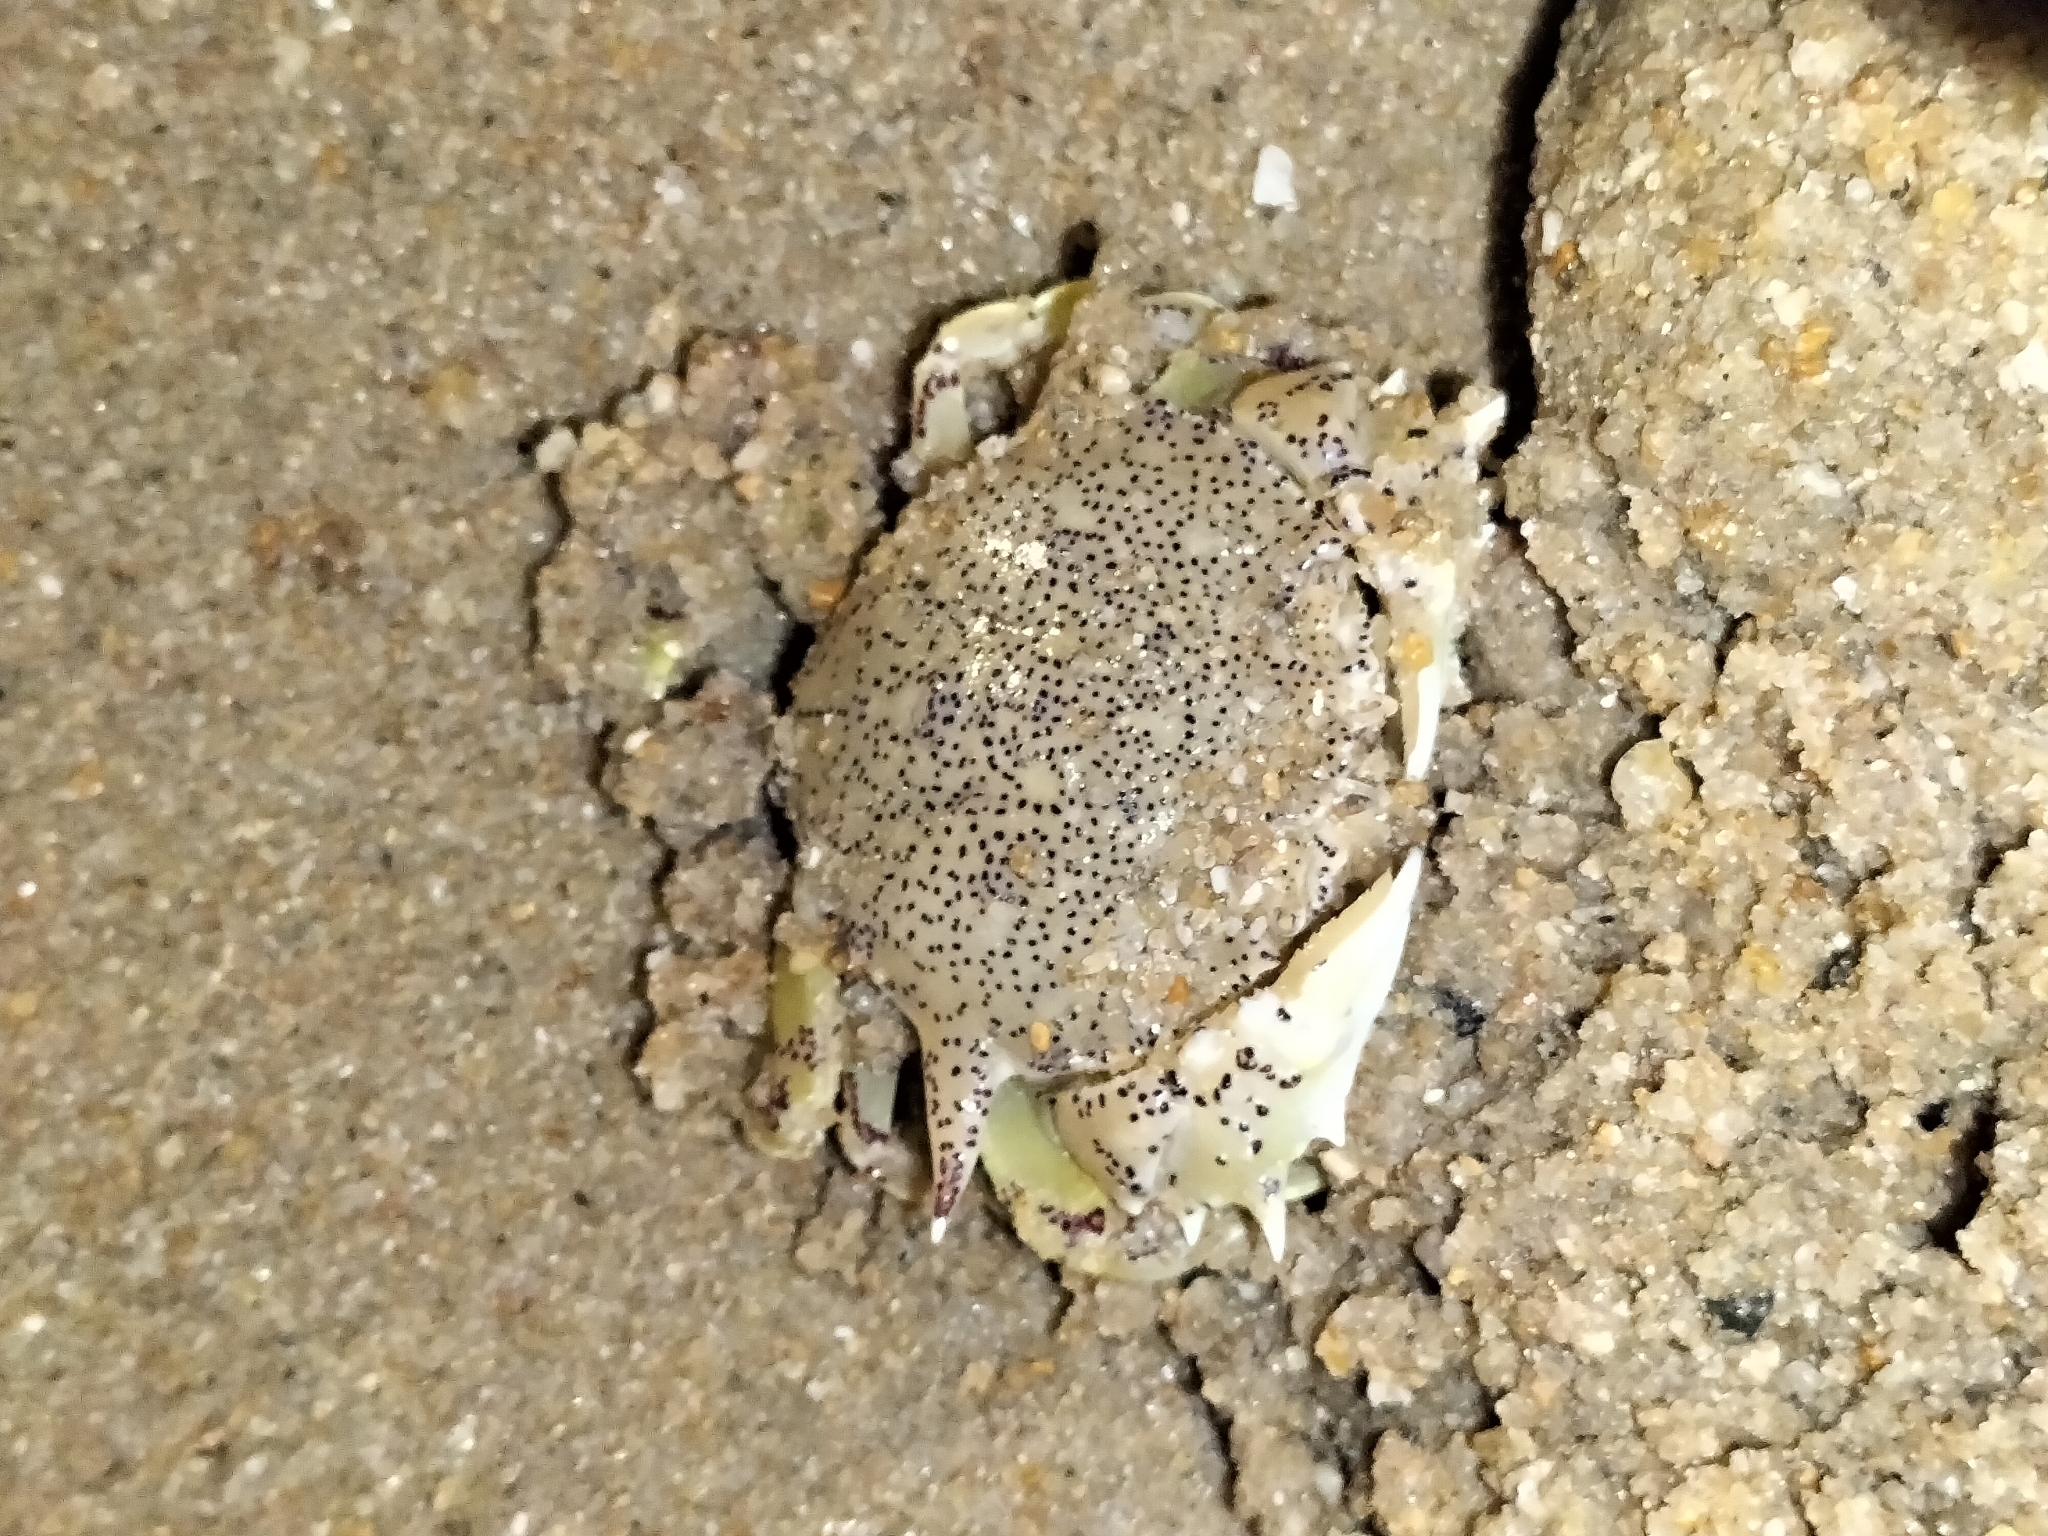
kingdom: Animalia
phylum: Arthropoda
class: Malacostraca
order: Decapoda
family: Matutidae
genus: Matuta
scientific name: Matuta victor
